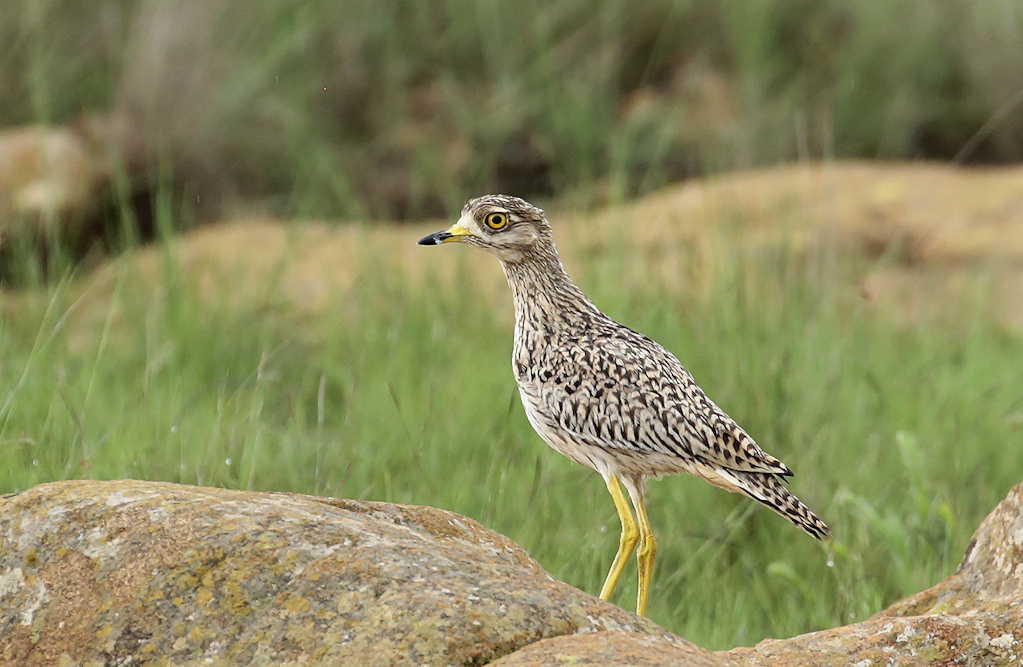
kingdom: Animalia
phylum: Chordata
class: Aves
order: Charadriiformes
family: Burhinidae
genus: Burhinus
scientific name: Burhinus capensis
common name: Spotted thick-knee
